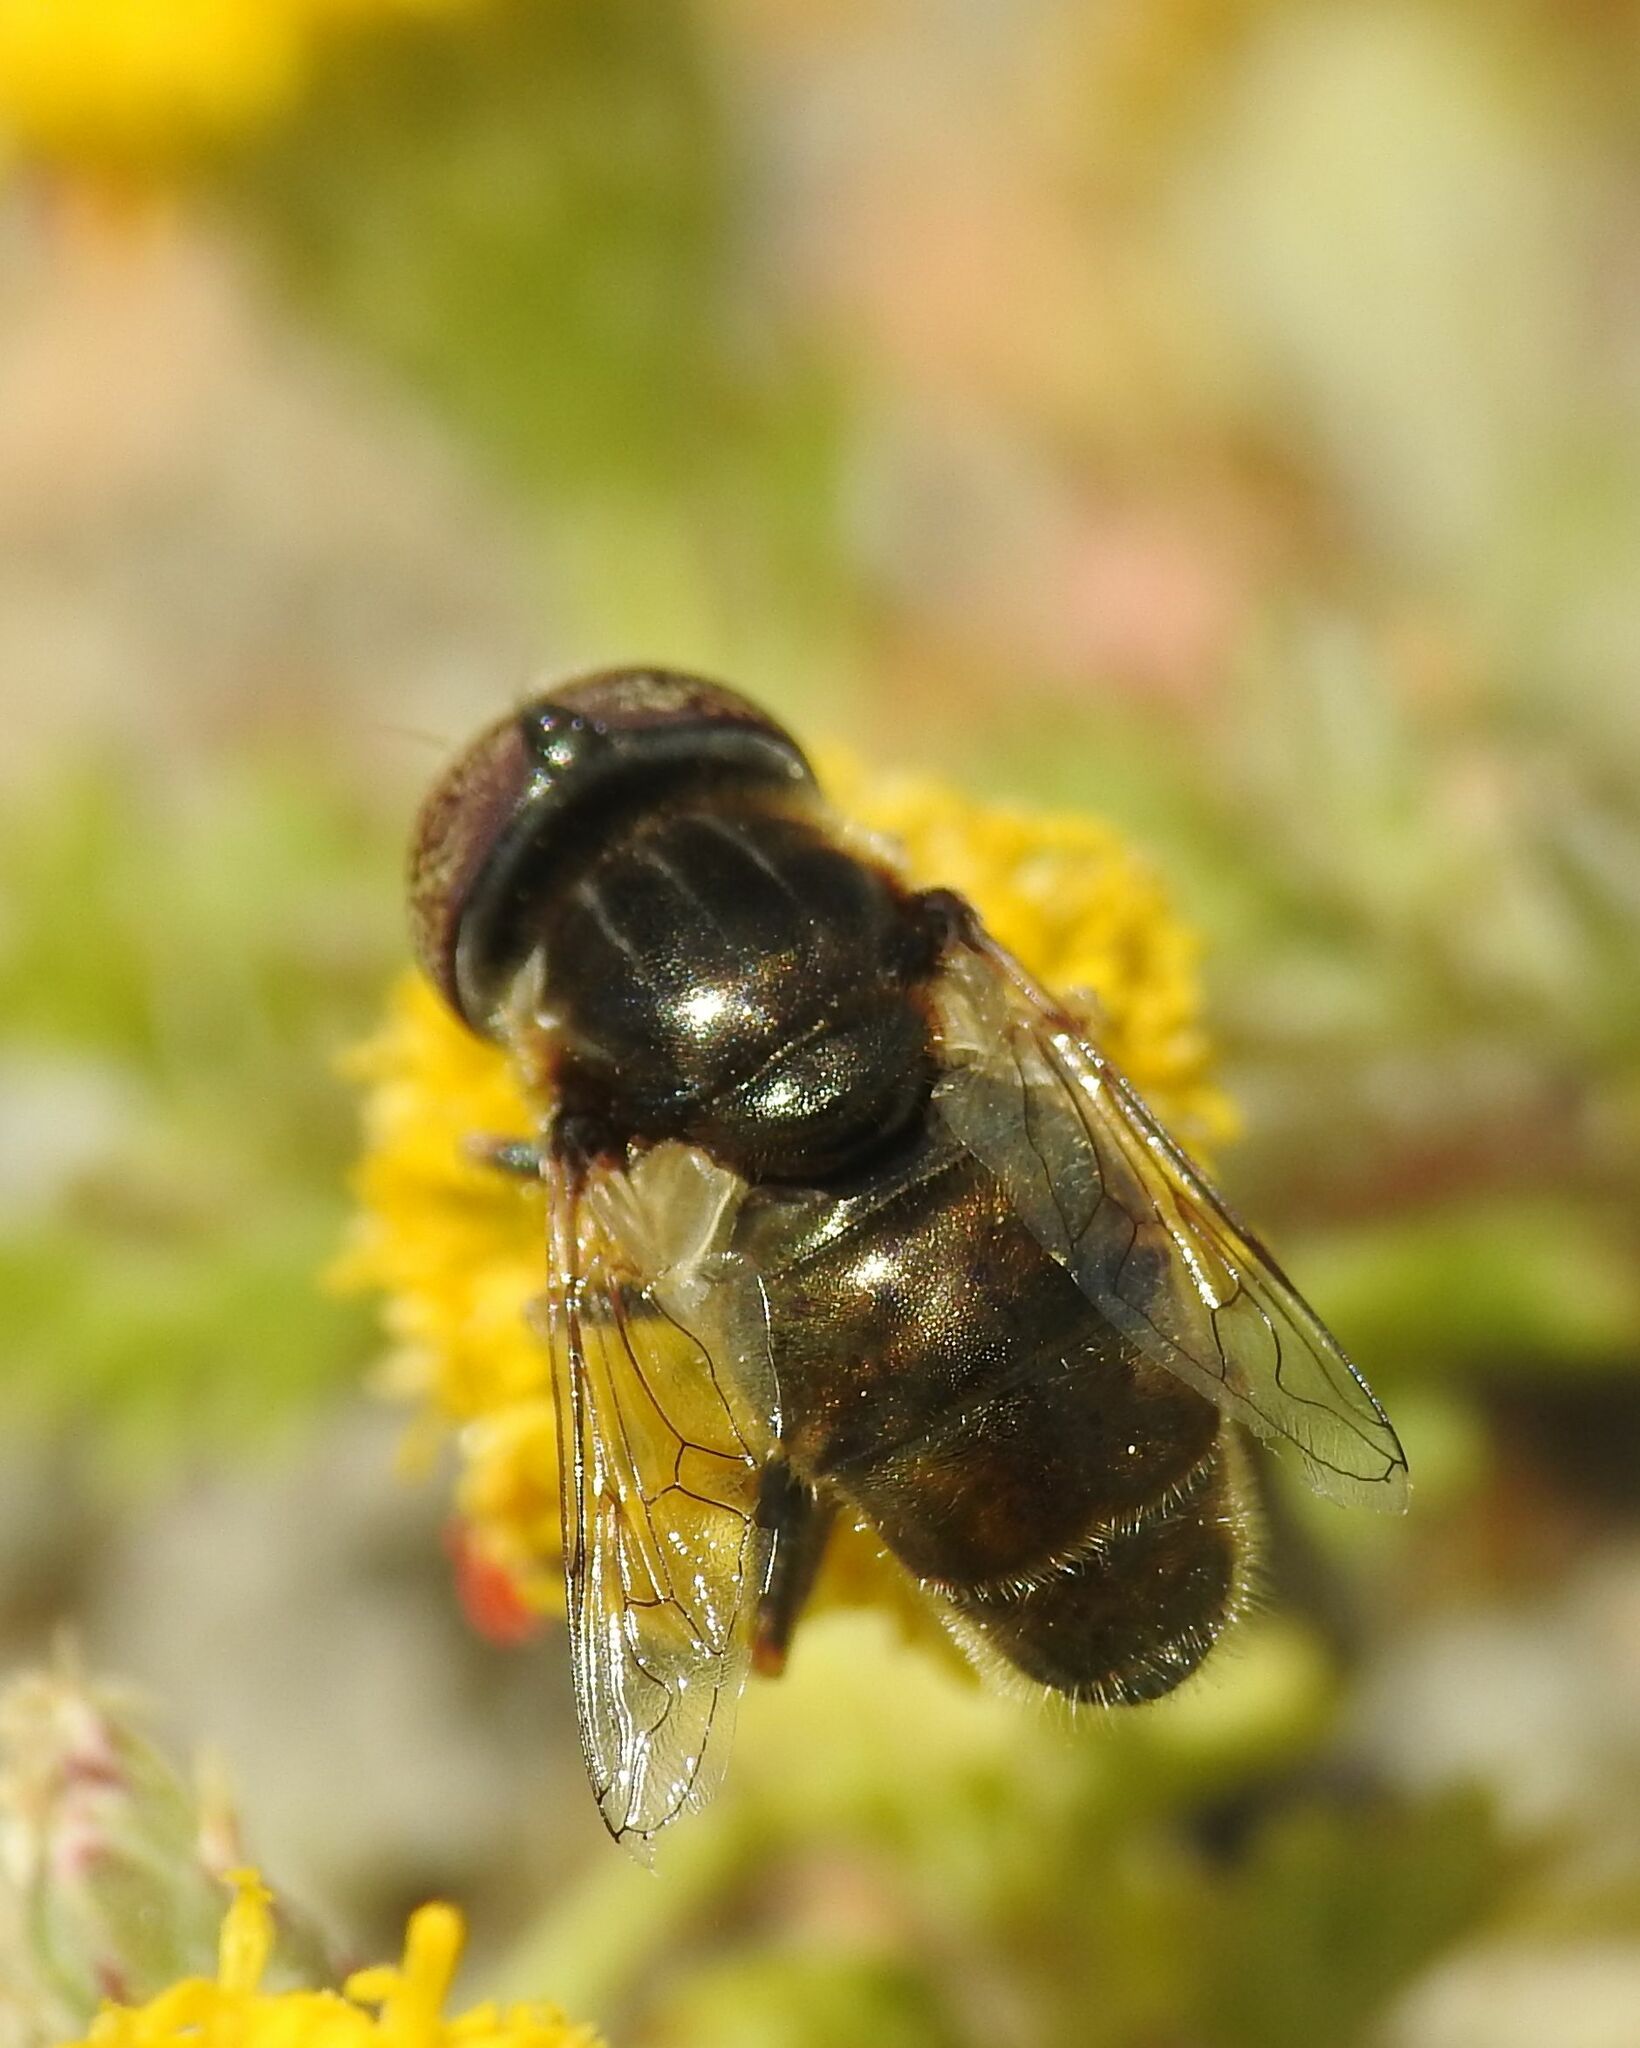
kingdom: Animalia
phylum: Arthropoda
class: Insecta
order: Diptera
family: Syrphidae
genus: Eristalinus
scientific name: Eristalinus aeneus
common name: Syrphid fly
